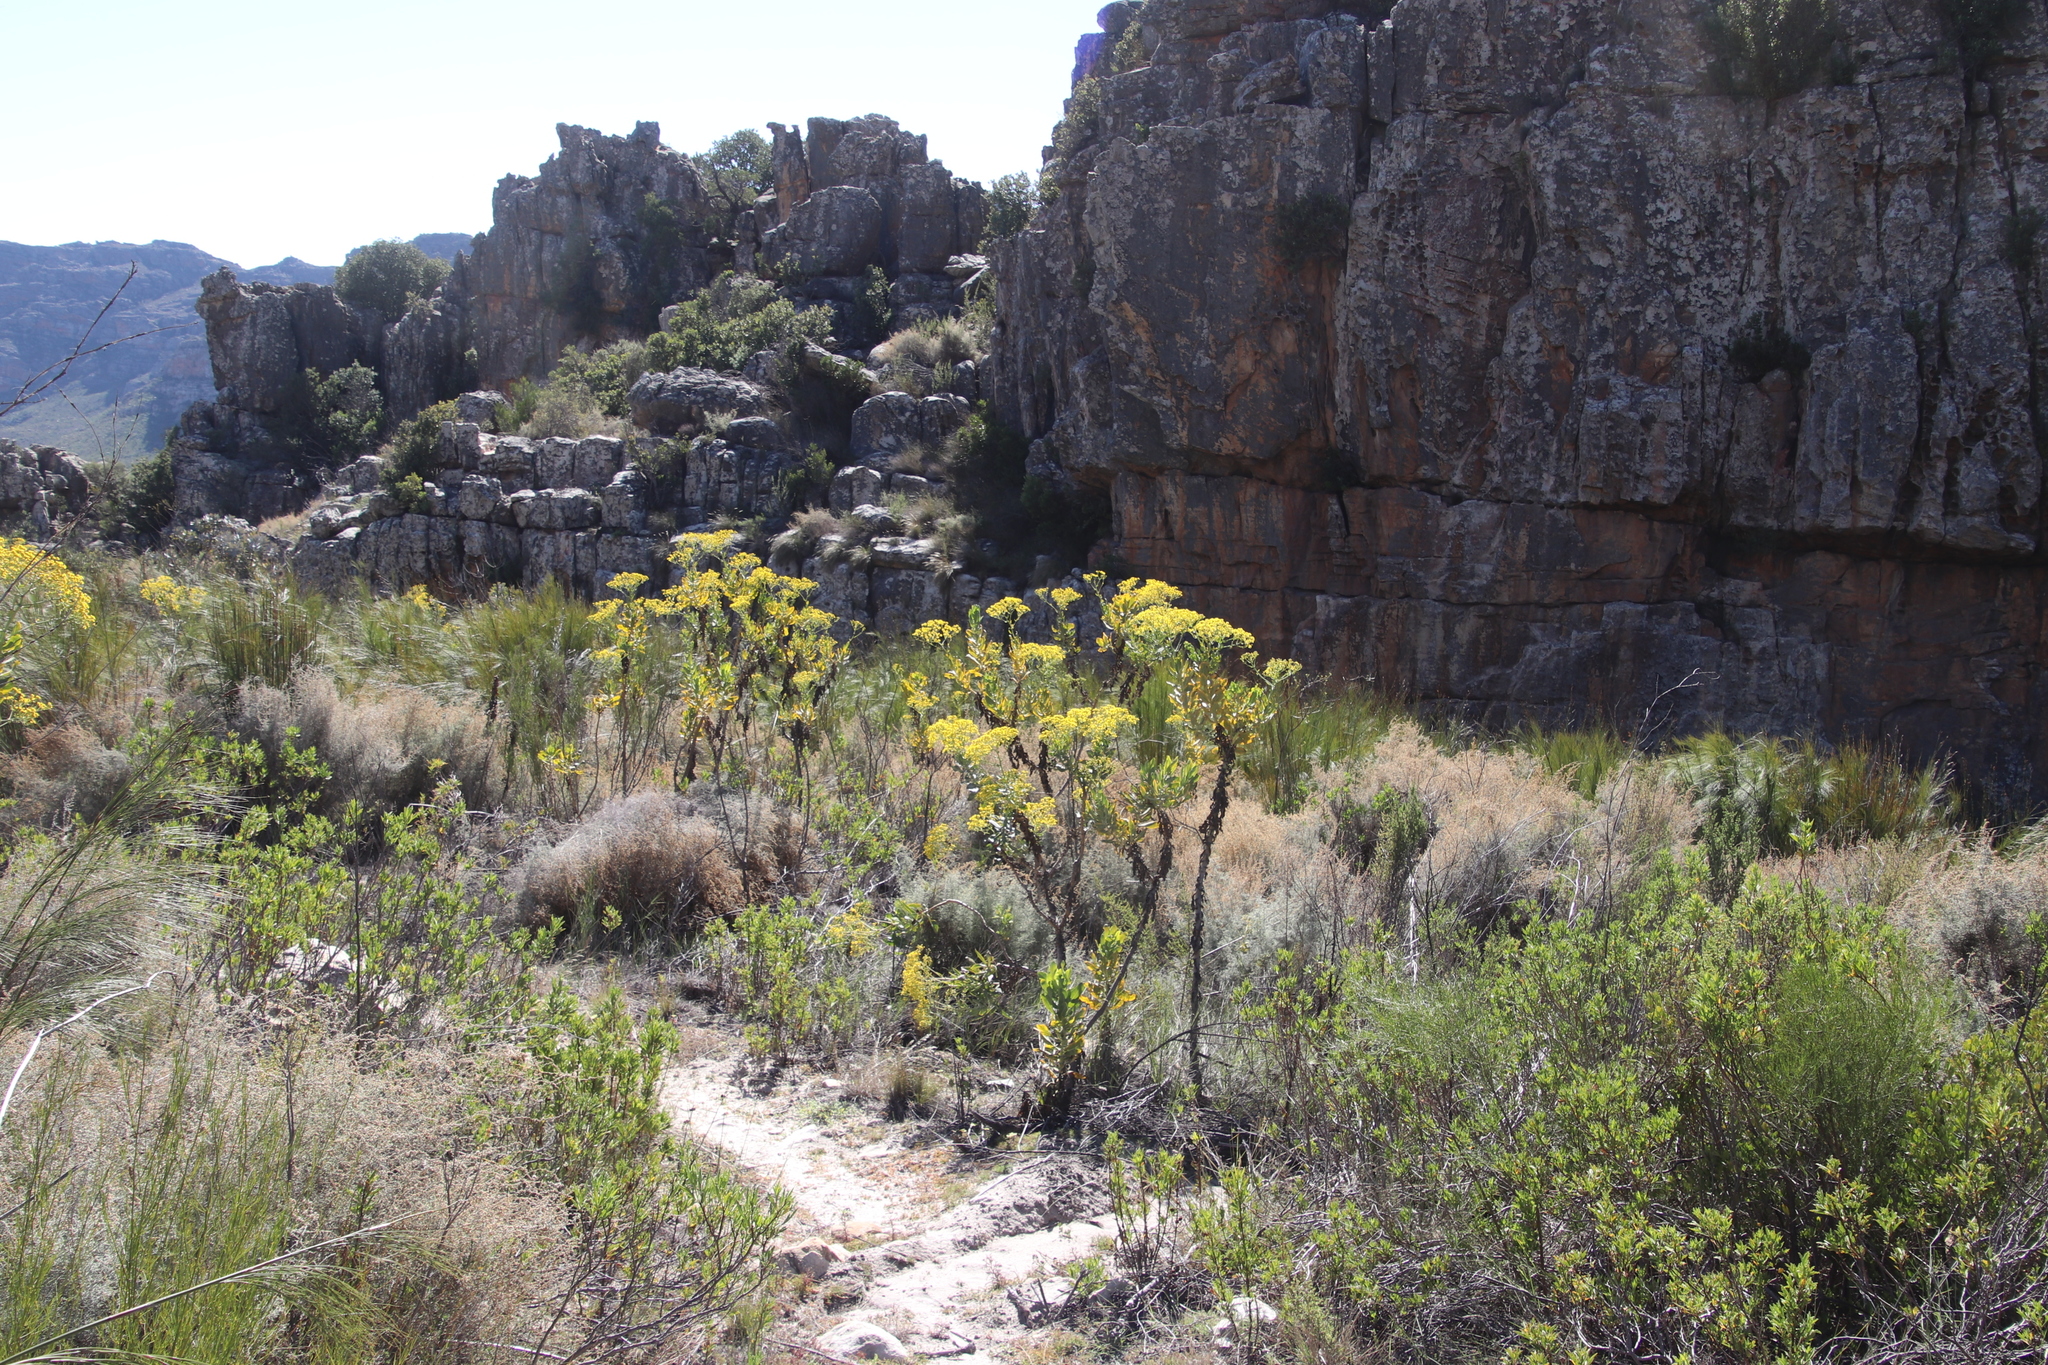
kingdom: Plantae
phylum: Tracheophyta
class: Magnoliopsida
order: Asterales
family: Asteraceae
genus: Othonna
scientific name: Othonna parviflora
